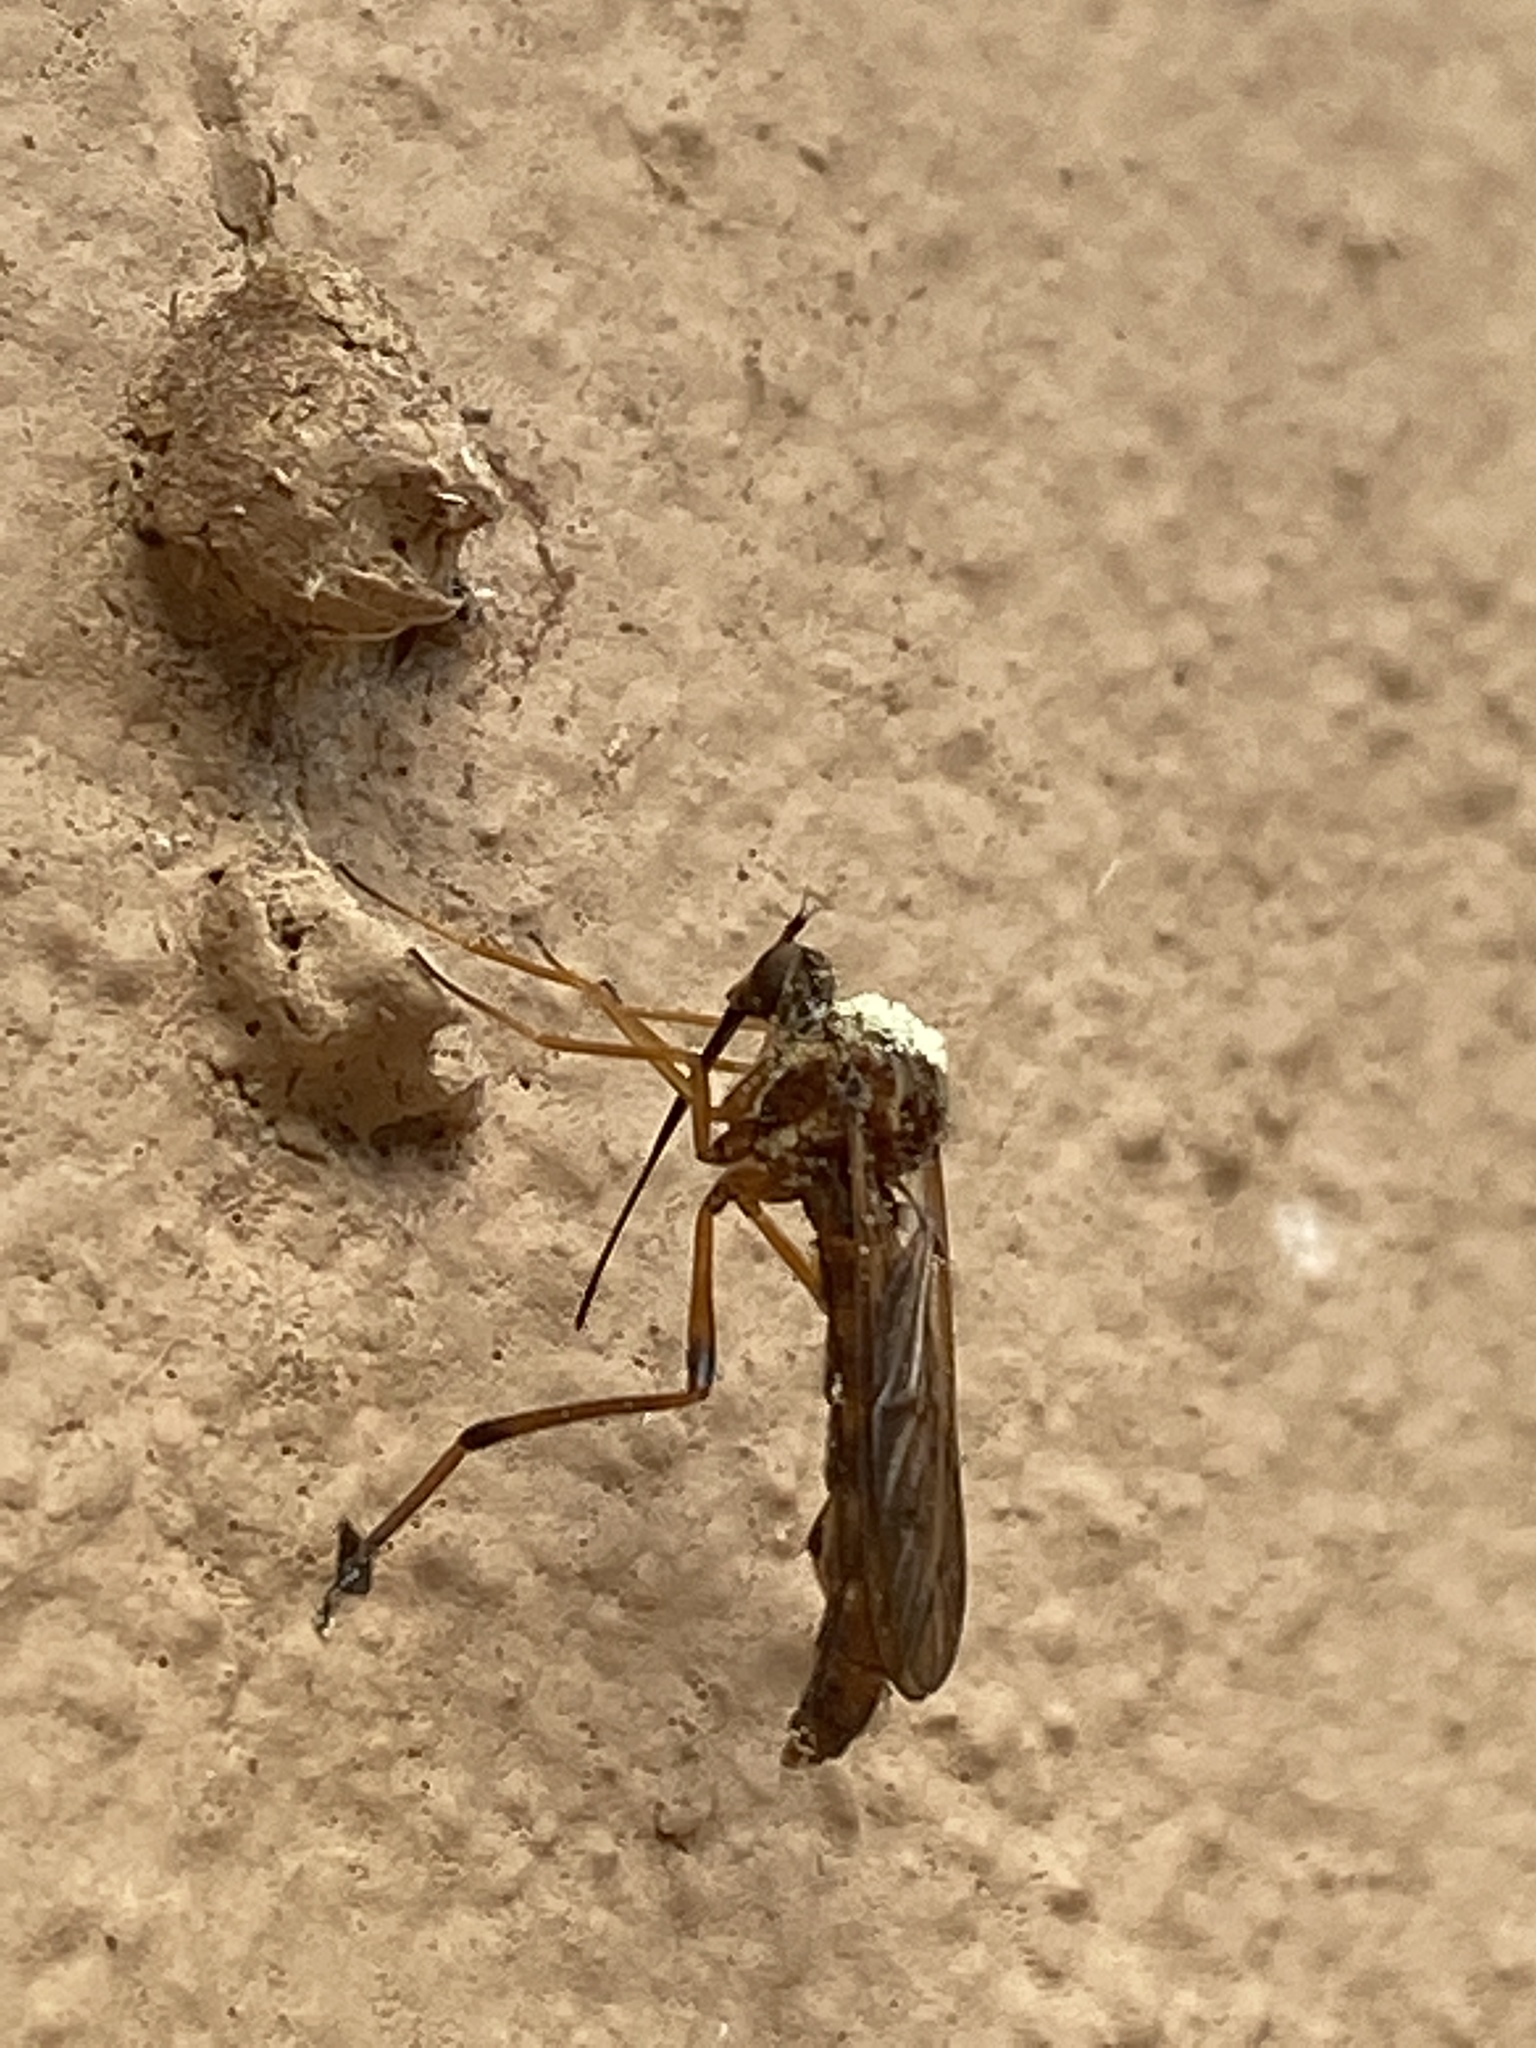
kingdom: Animalia
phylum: Arthropoda
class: Insecta
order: Diptera
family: Vermileonidae
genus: Lampromyia
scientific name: Lampromyia hemmingseni
